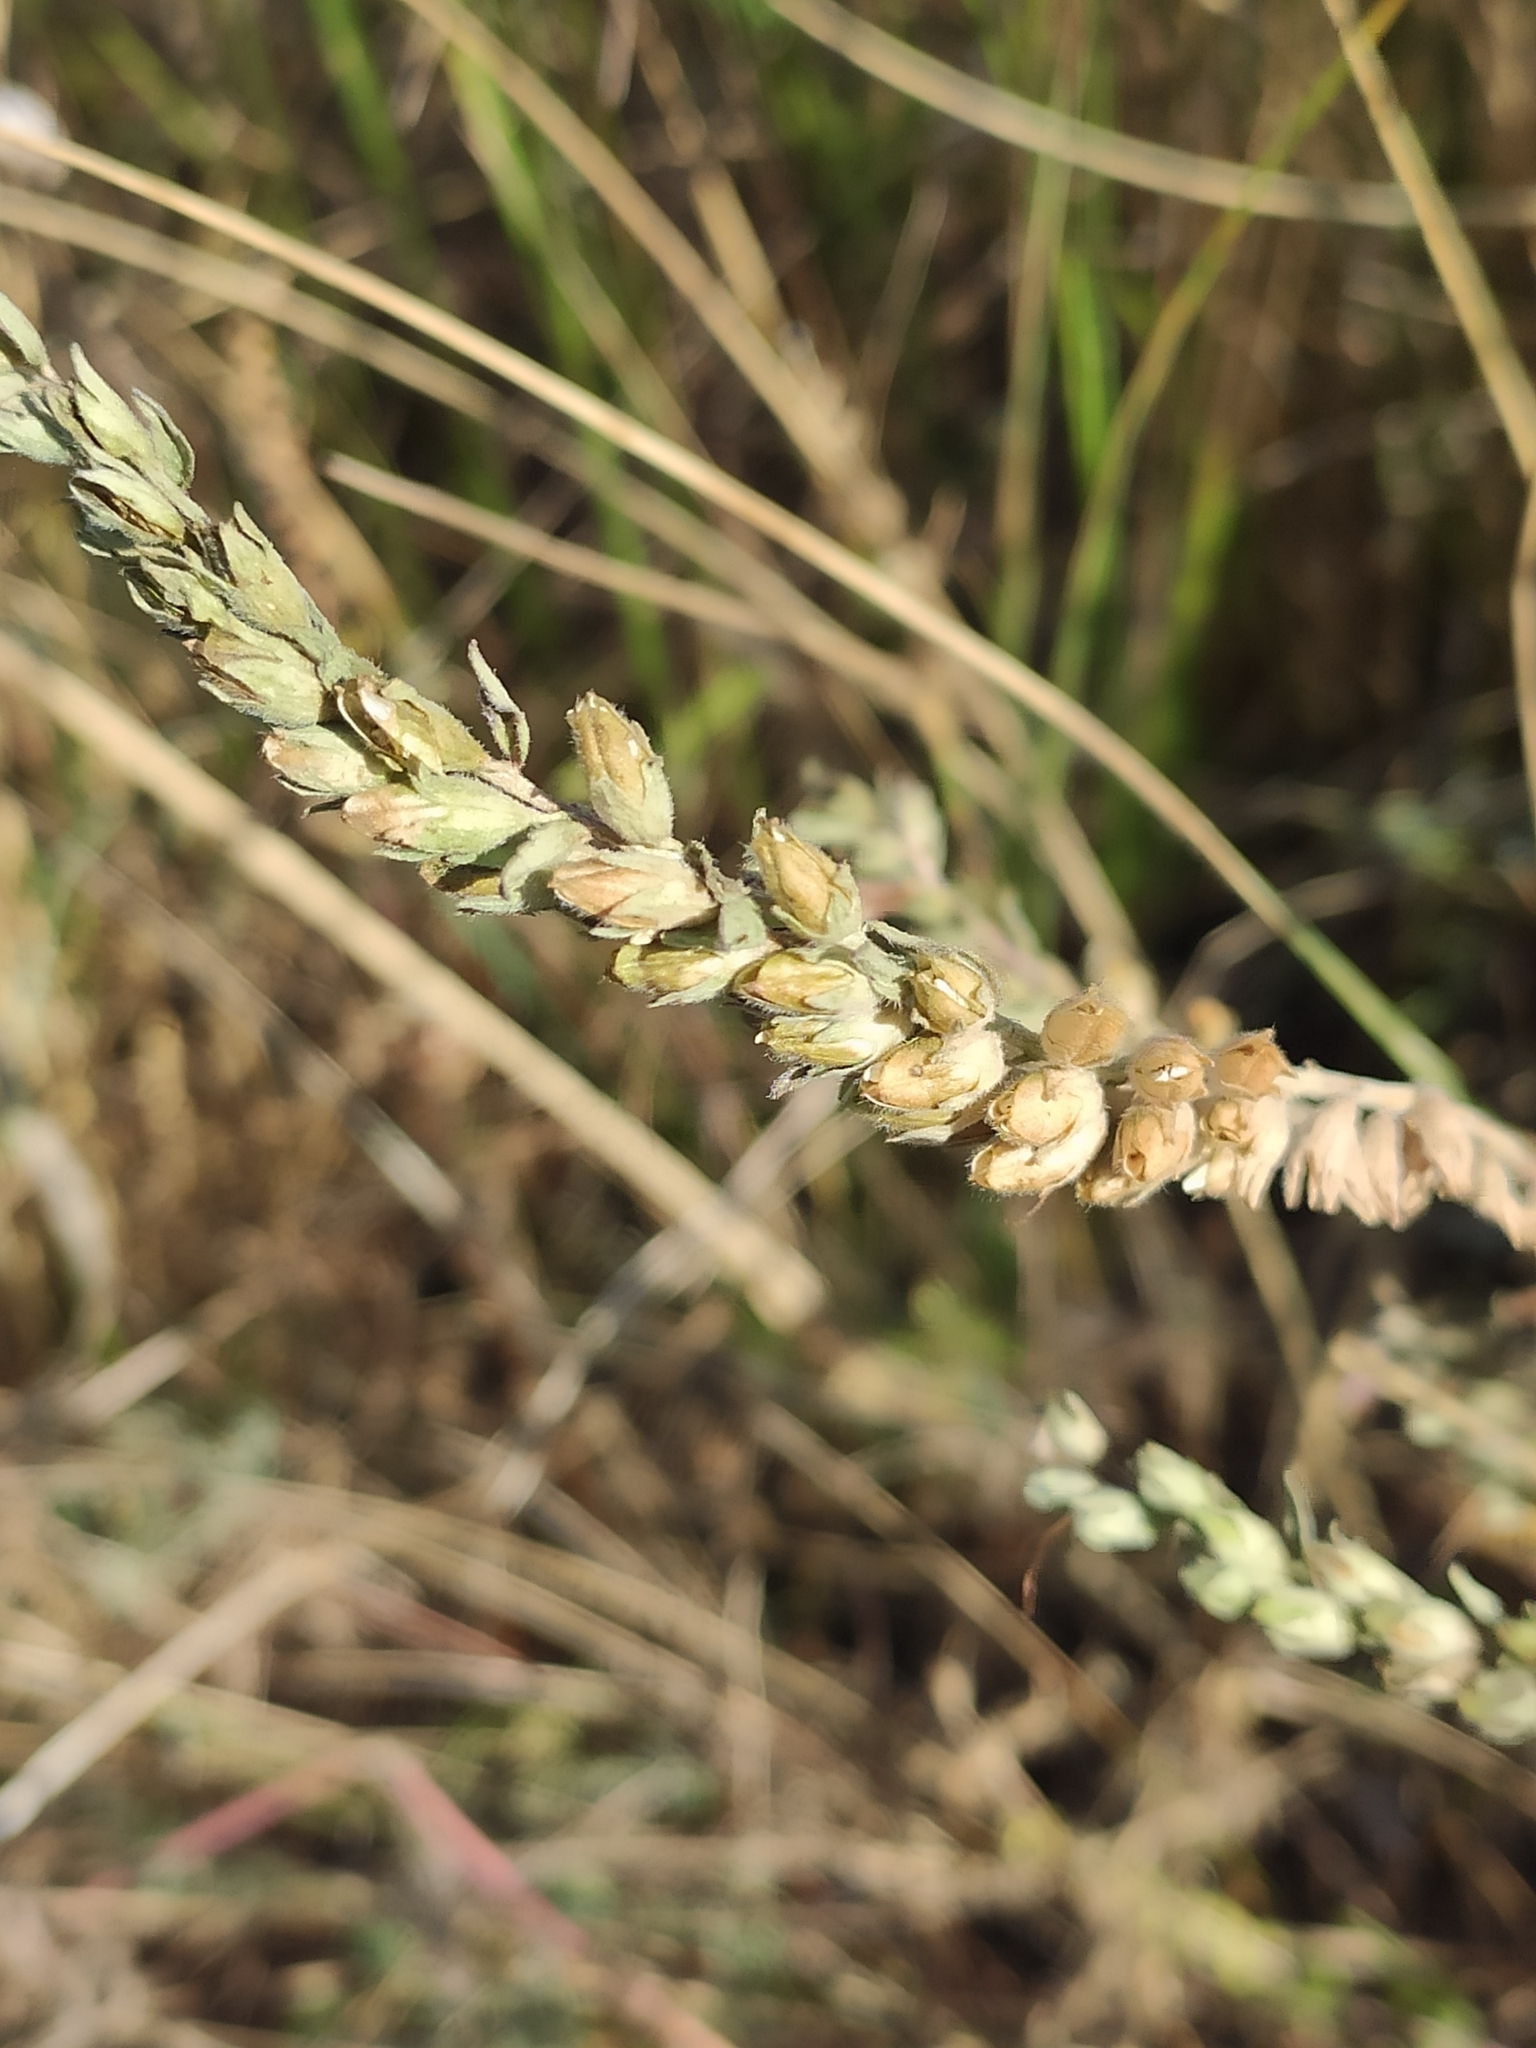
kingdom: Plantae
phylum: Tracheophyta
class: Magnoliopsida
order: Lamiales
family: Orobanchaceae
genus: Odontites
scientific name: Odontites vulgaris
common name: Broomrape
